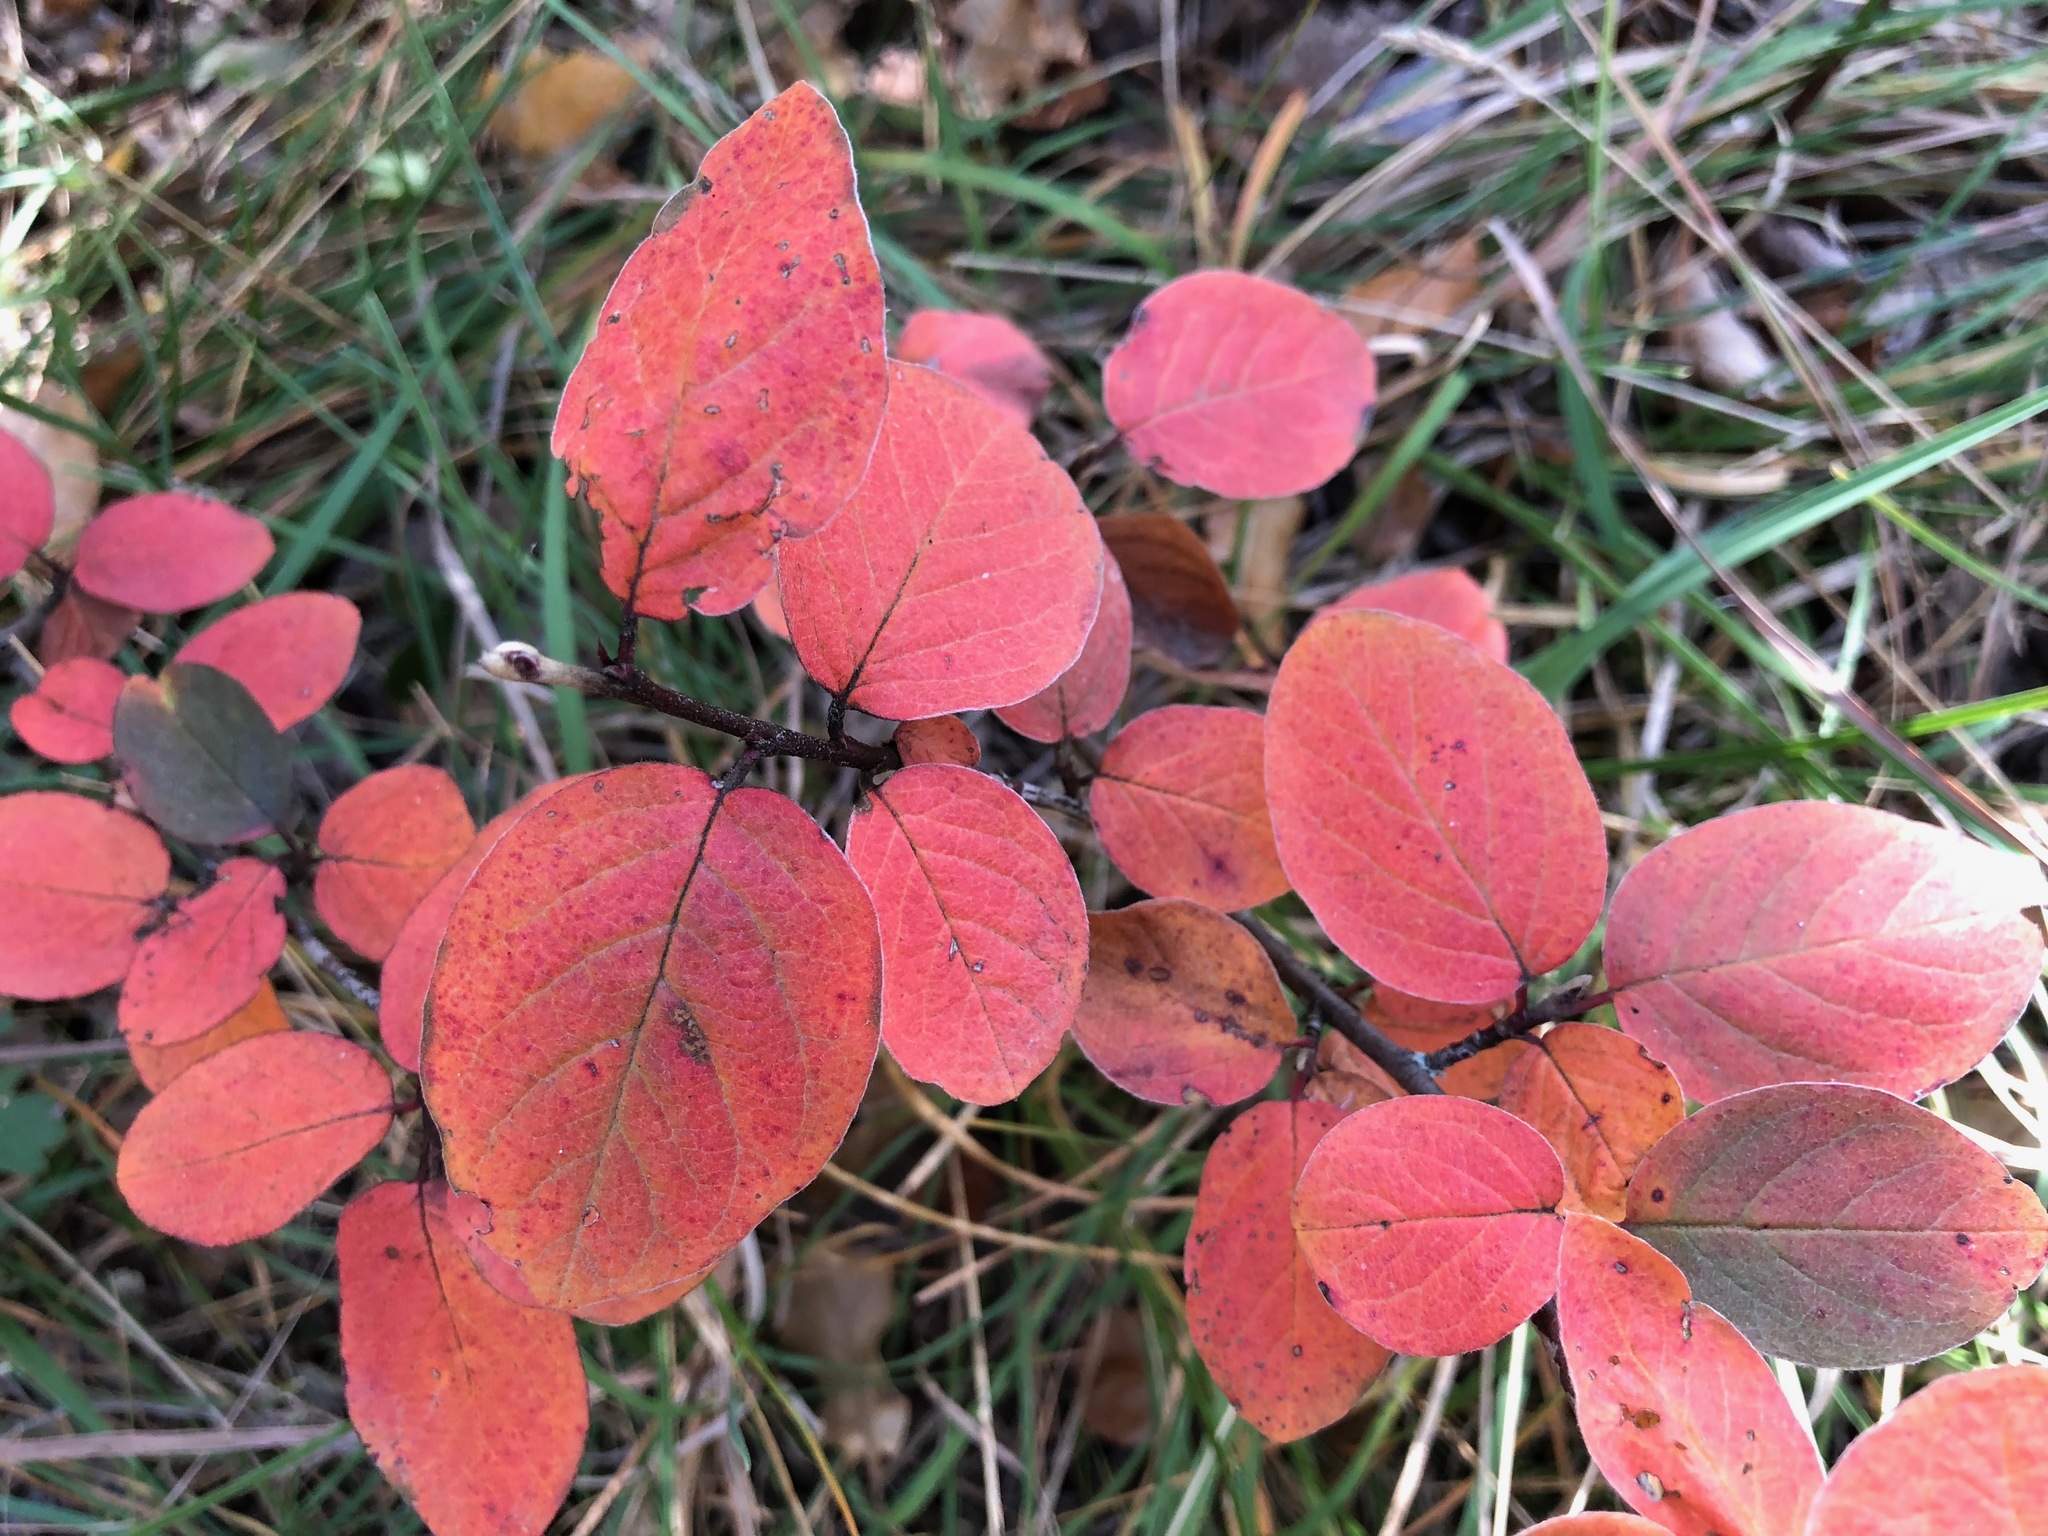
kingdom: Plantae
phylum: Tracheophyta
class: Magnoliopsida
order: Rosales
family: Rosaceae
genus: Amelanchier
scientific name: Amelanchier ovalis
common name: Serviceberry
